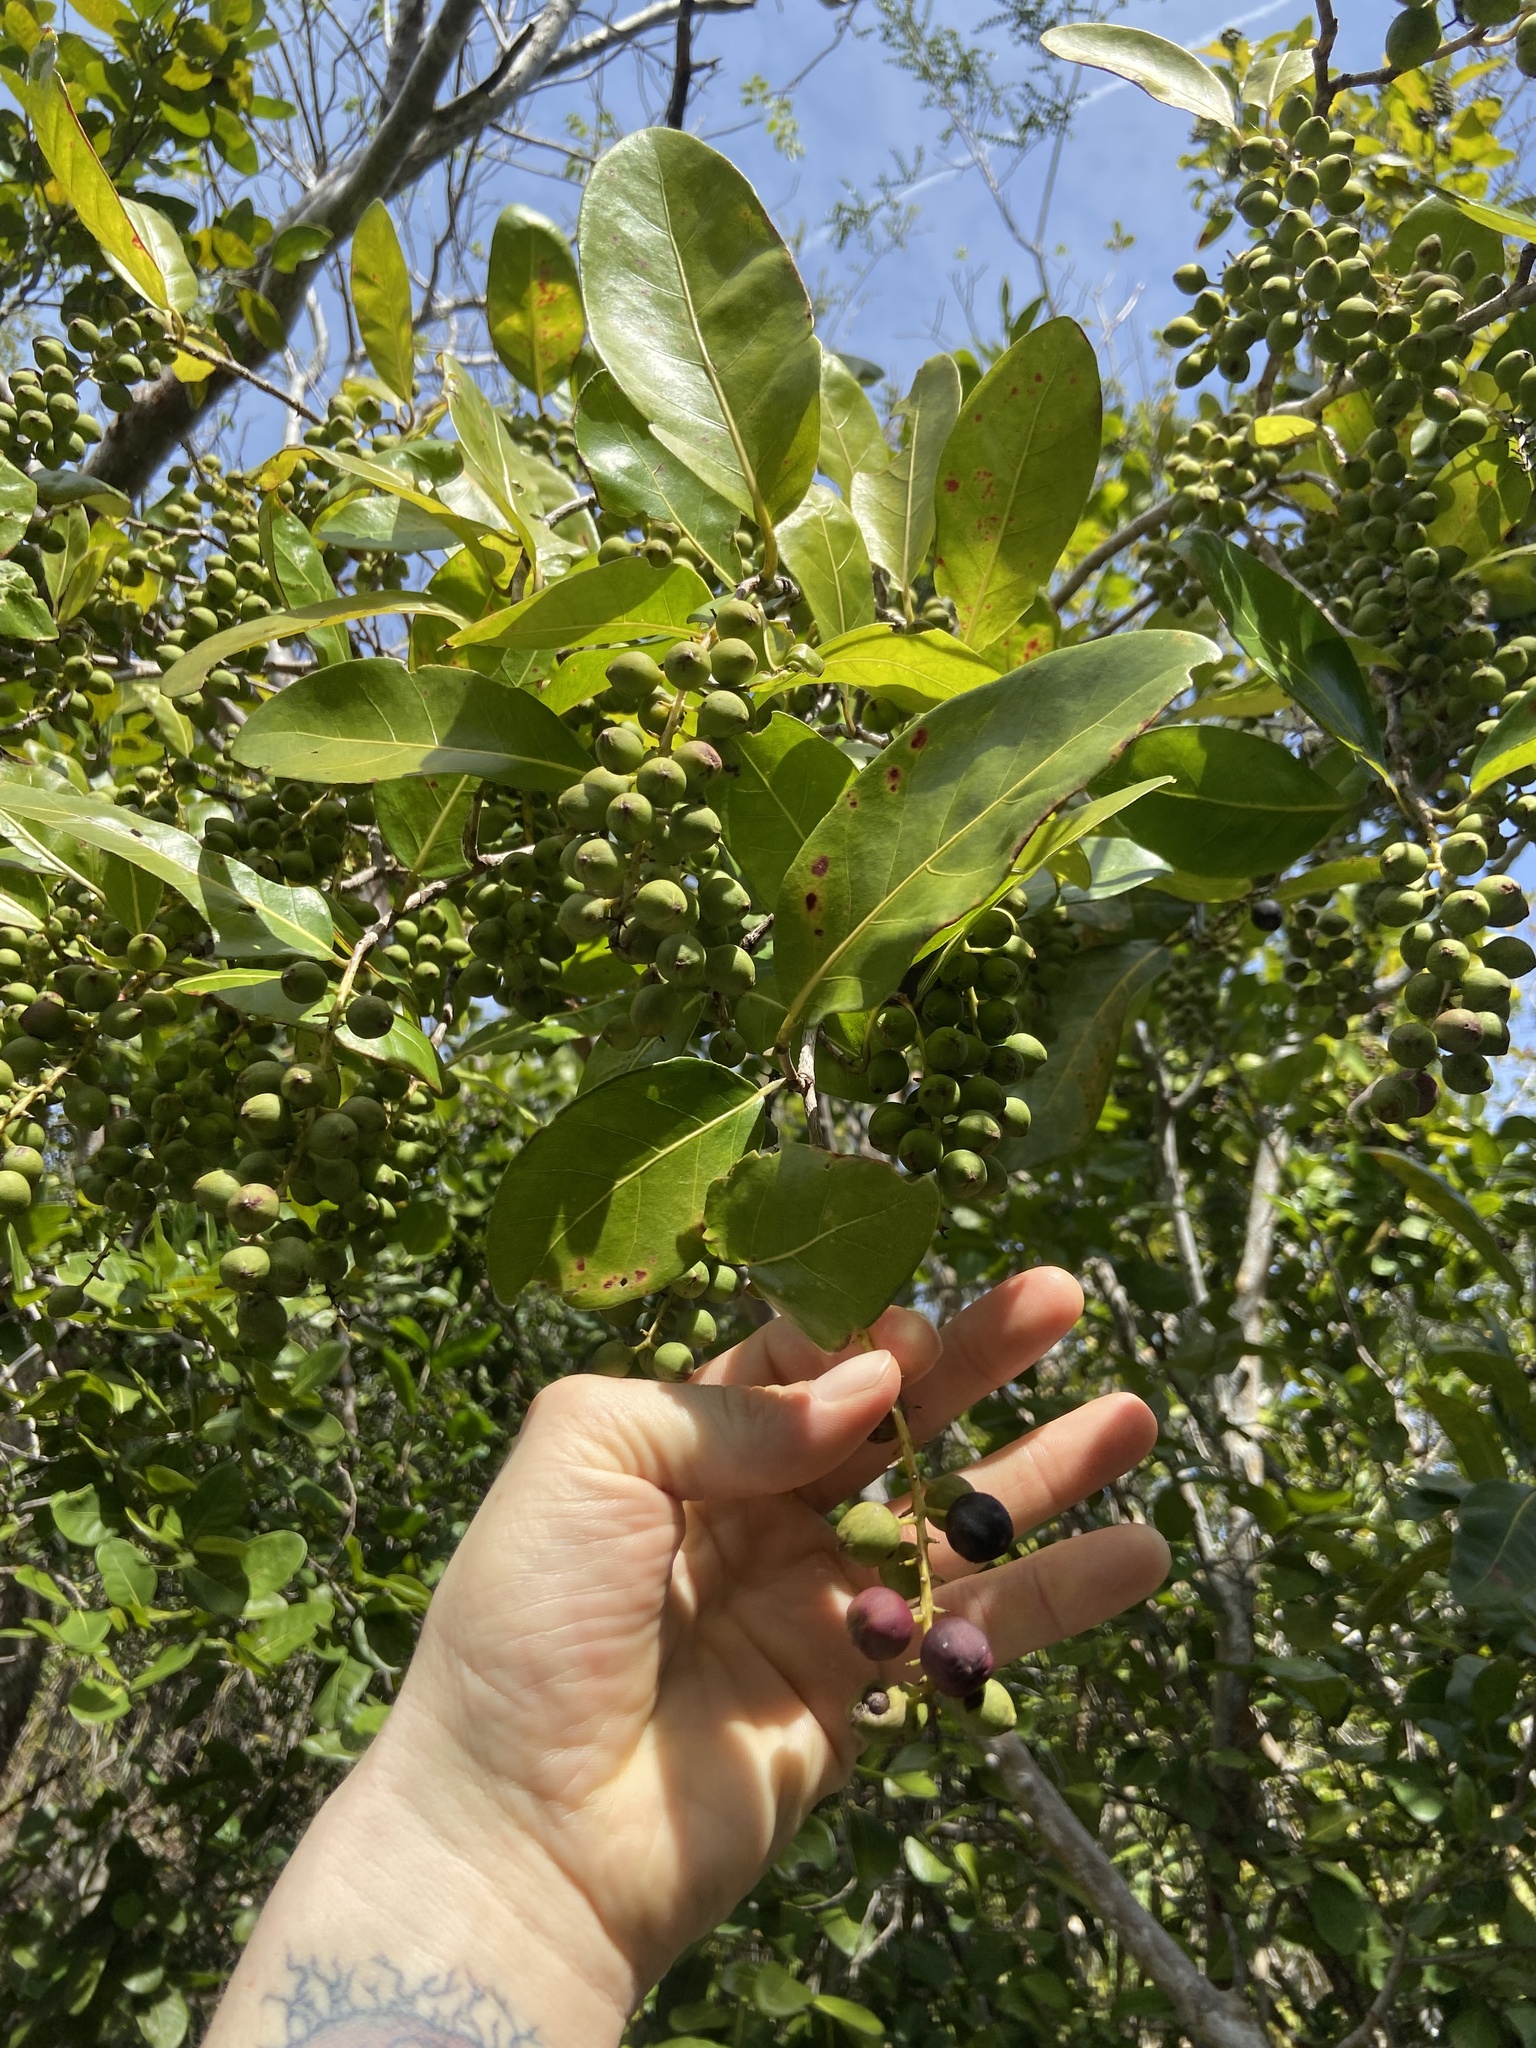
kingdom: Plantae
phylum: Tracheophyta
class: Magnoliopsida
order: Caryophyllales
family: Polygonaceae
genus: Coccoloba
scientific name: Coccoloba diversifolia
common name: Pigeon-plum
